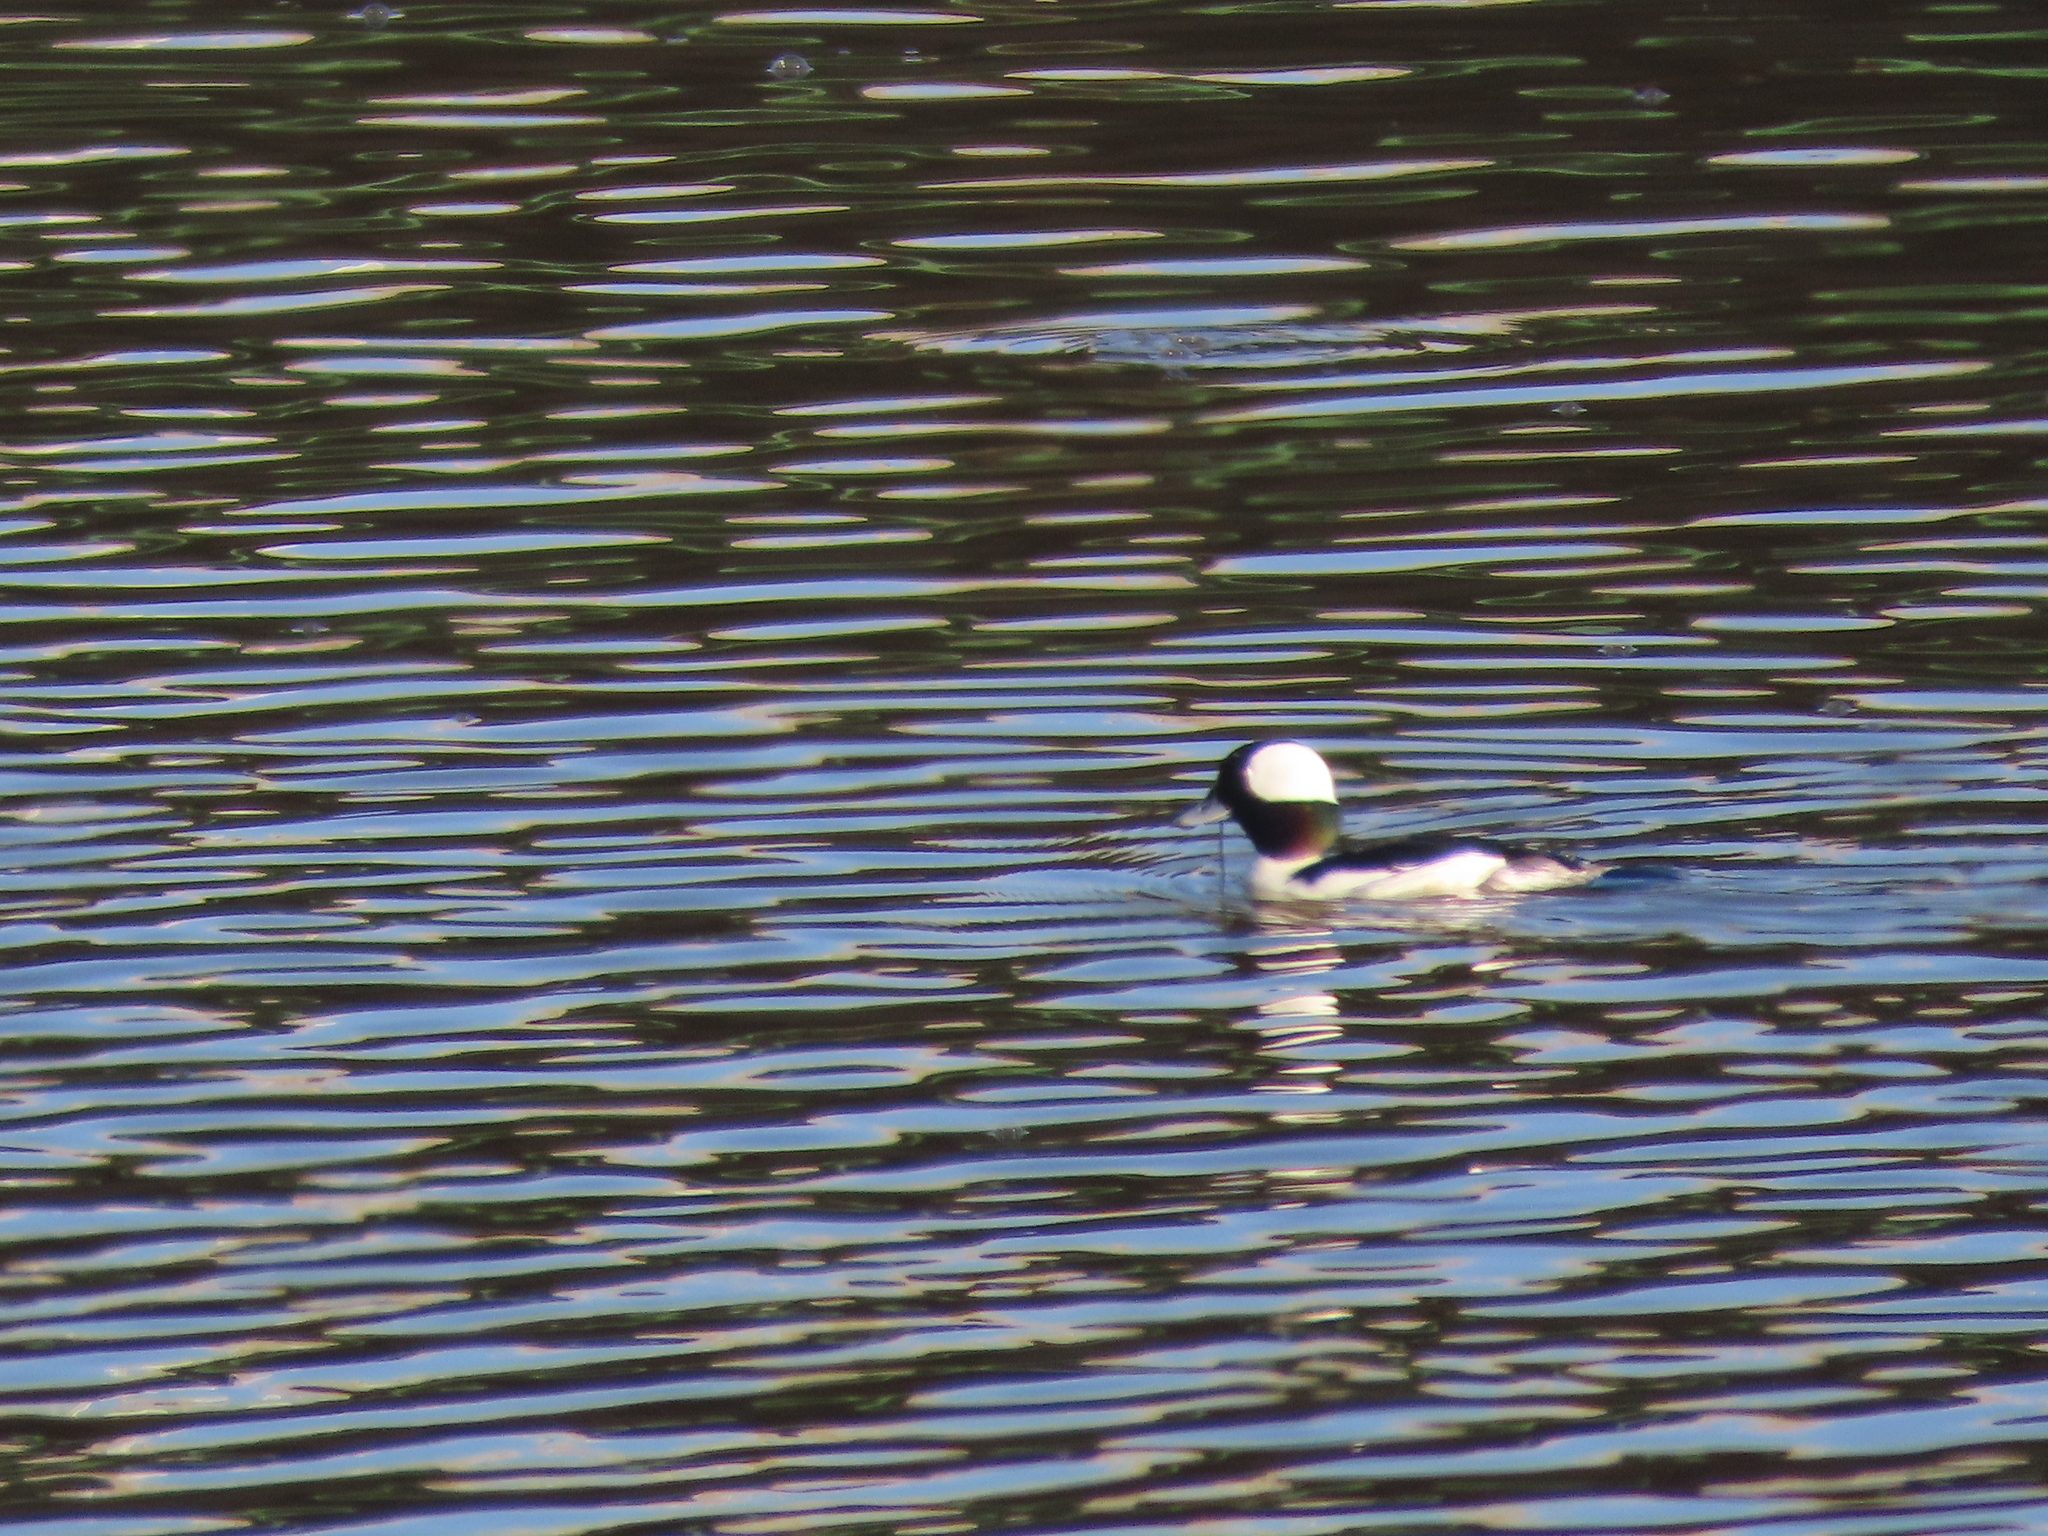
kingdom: Animalia
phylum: Chordata
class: Aves
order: Anseriformes
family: Anatidae
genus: Bucephala
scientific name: Bucephala albeola
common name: Bufflehead
